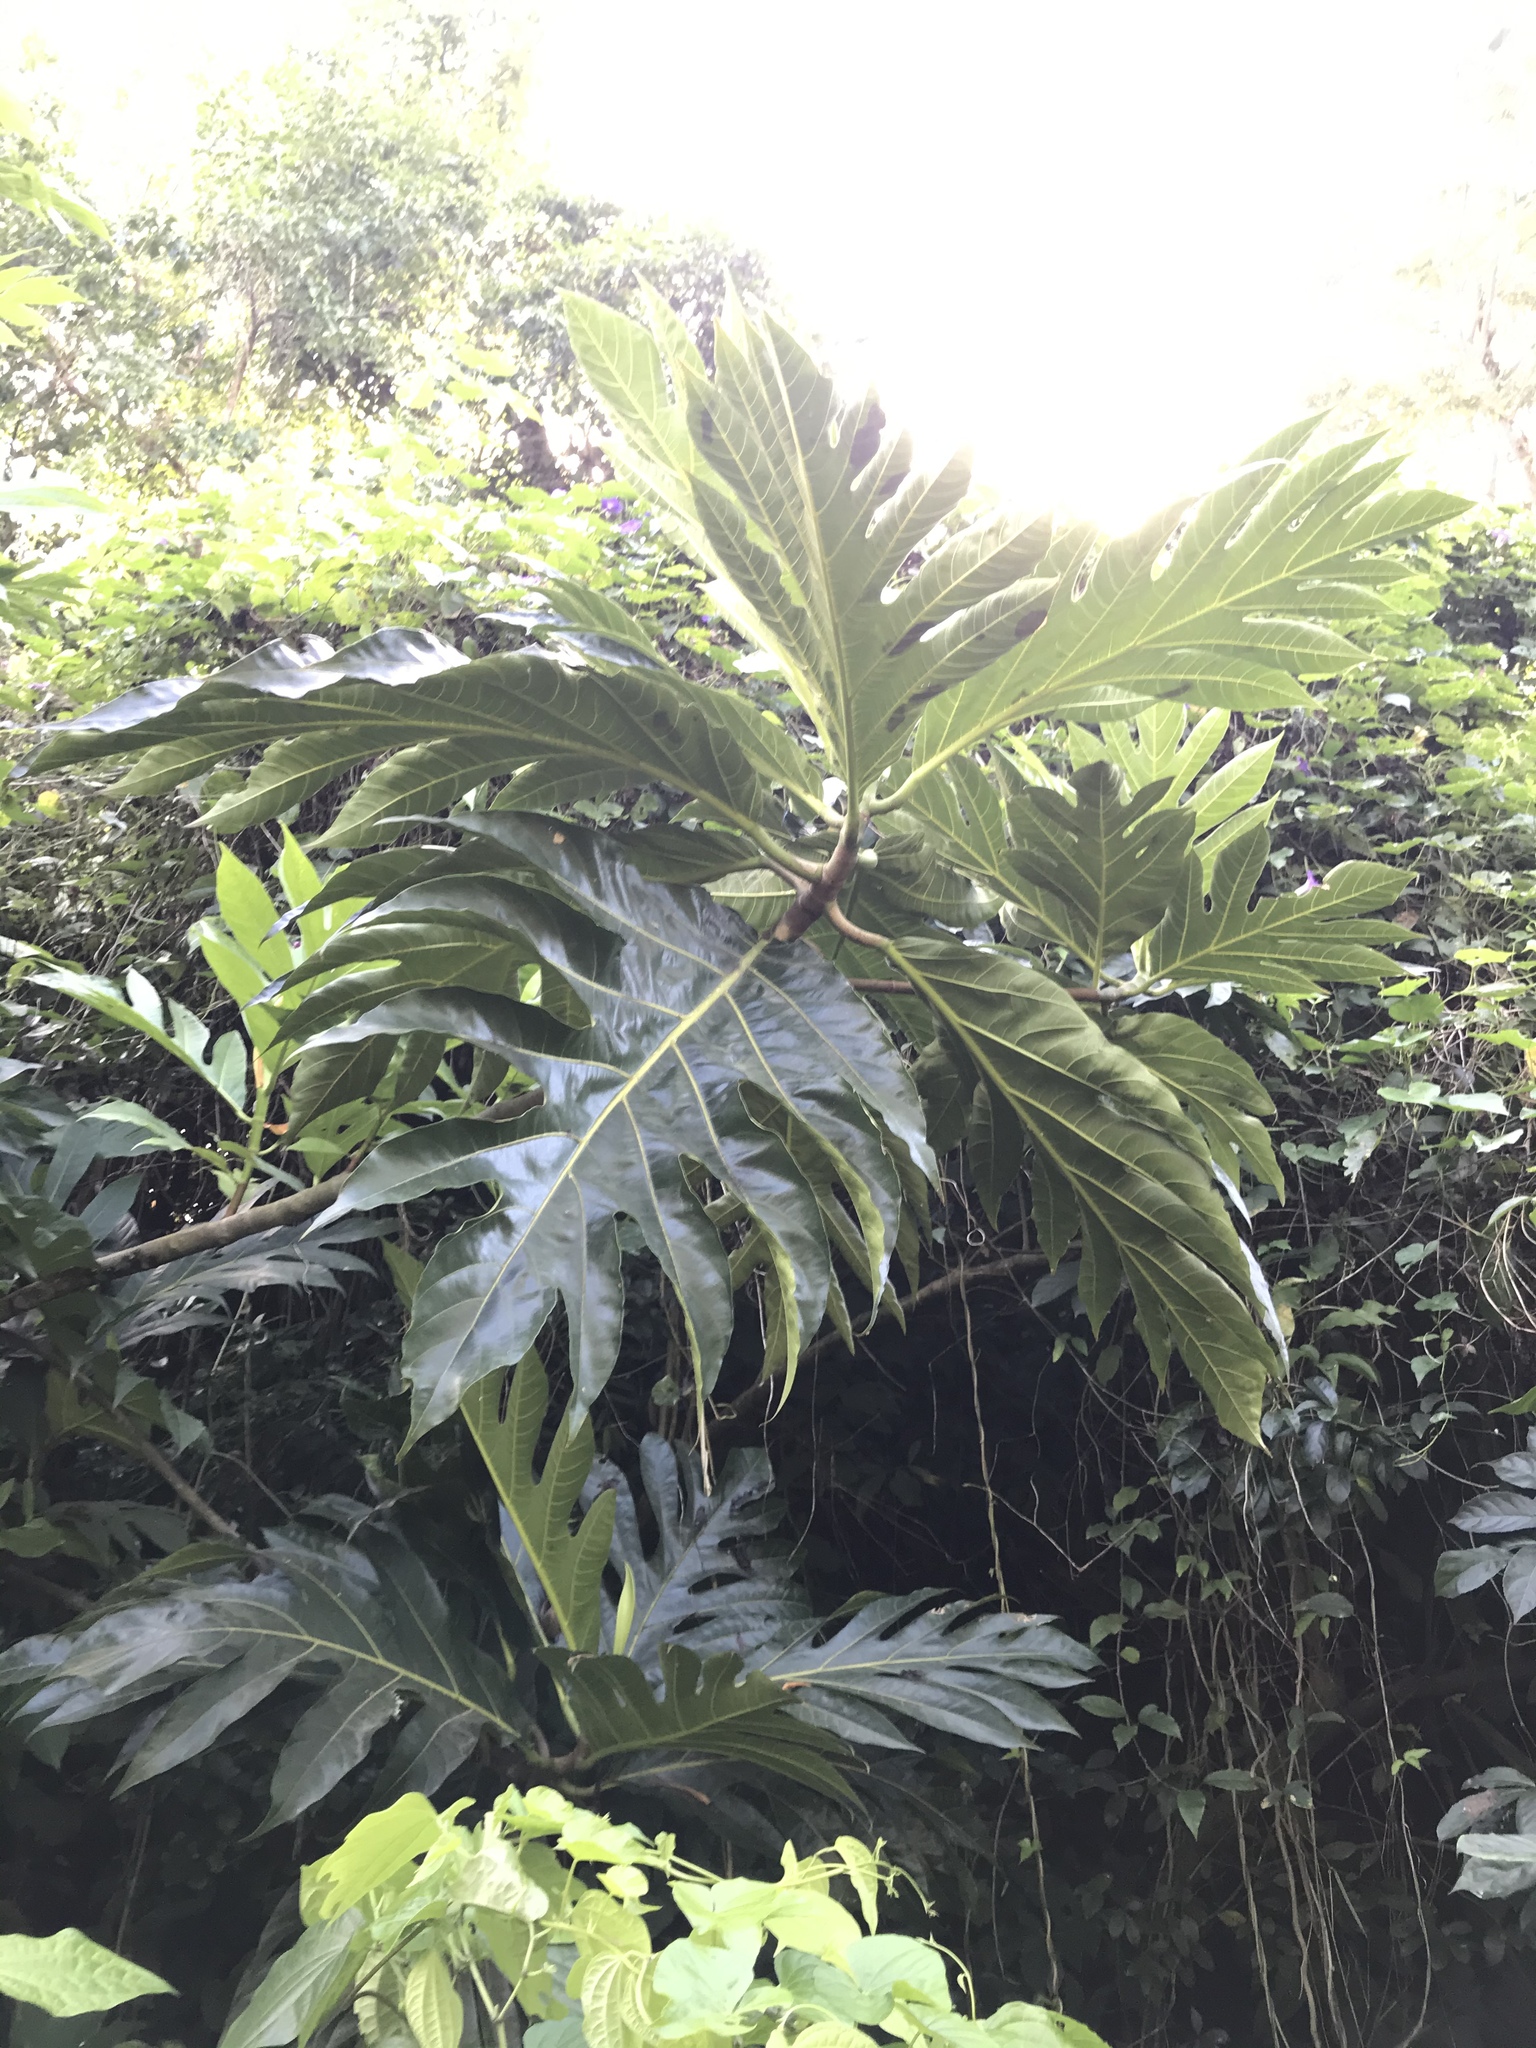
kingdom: Plantae
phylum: Tracheophyta
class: Magnoliopsida
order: Rosales
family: Moraceae
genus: Artocarpus
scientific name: Artocarpus altilis
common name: Breadfruit
